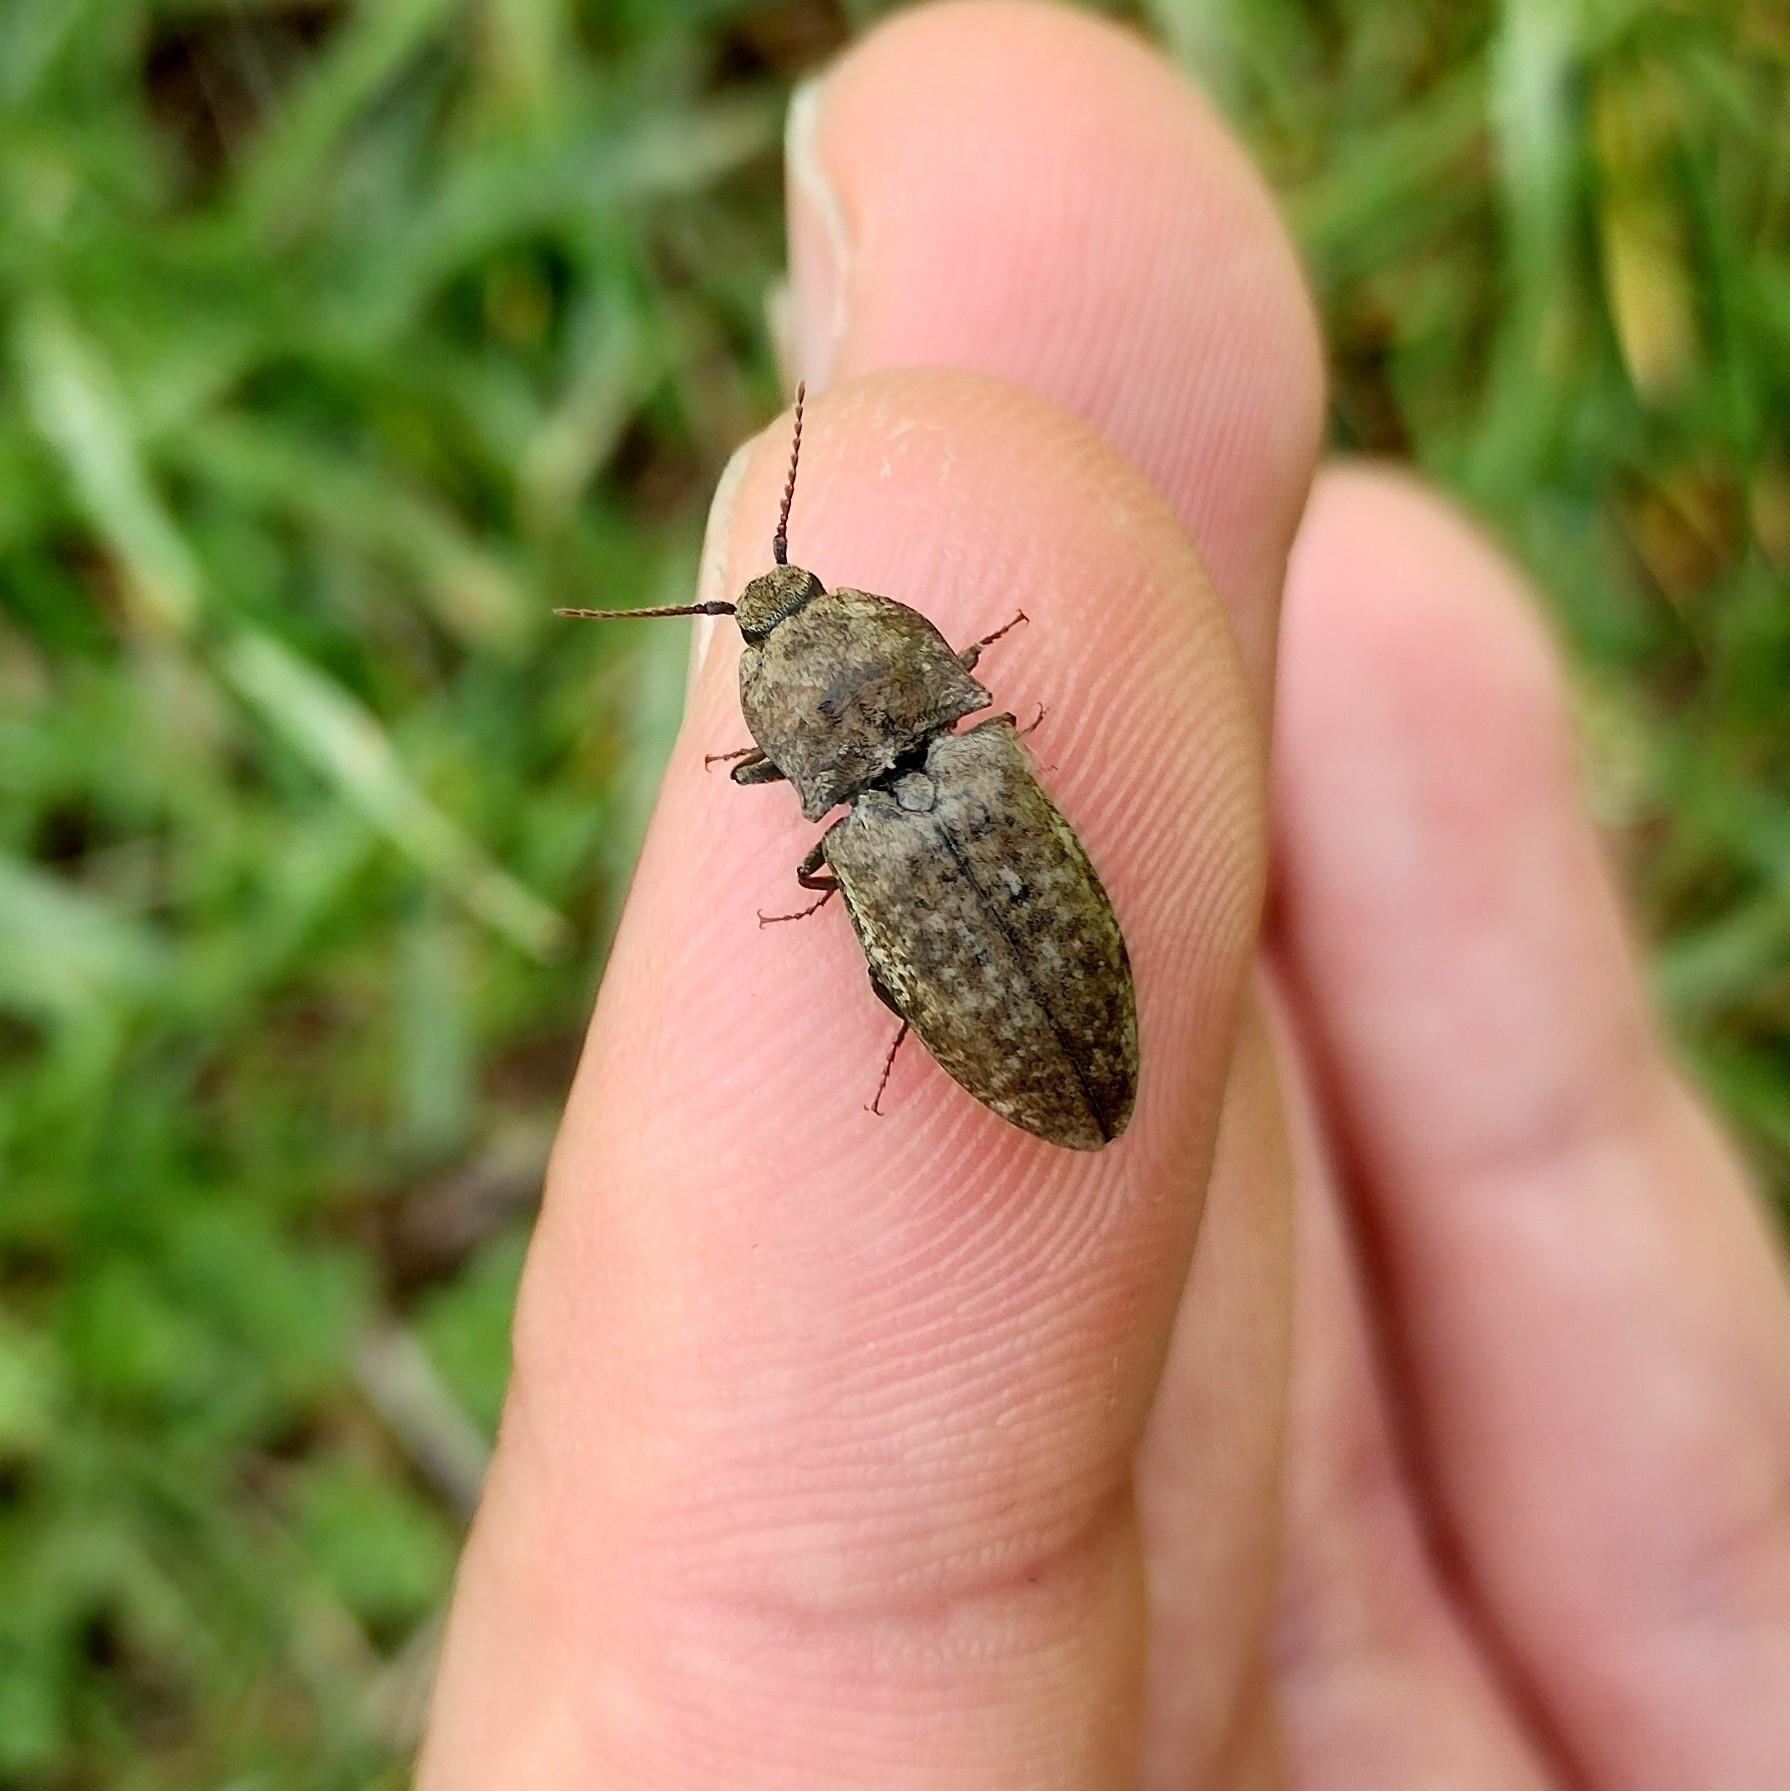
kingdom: Animalia
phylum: Arthropoda
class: Insecta
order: Coleoptera
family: Elateridae
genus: Agrypnus
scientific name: Agrypnus murinus
